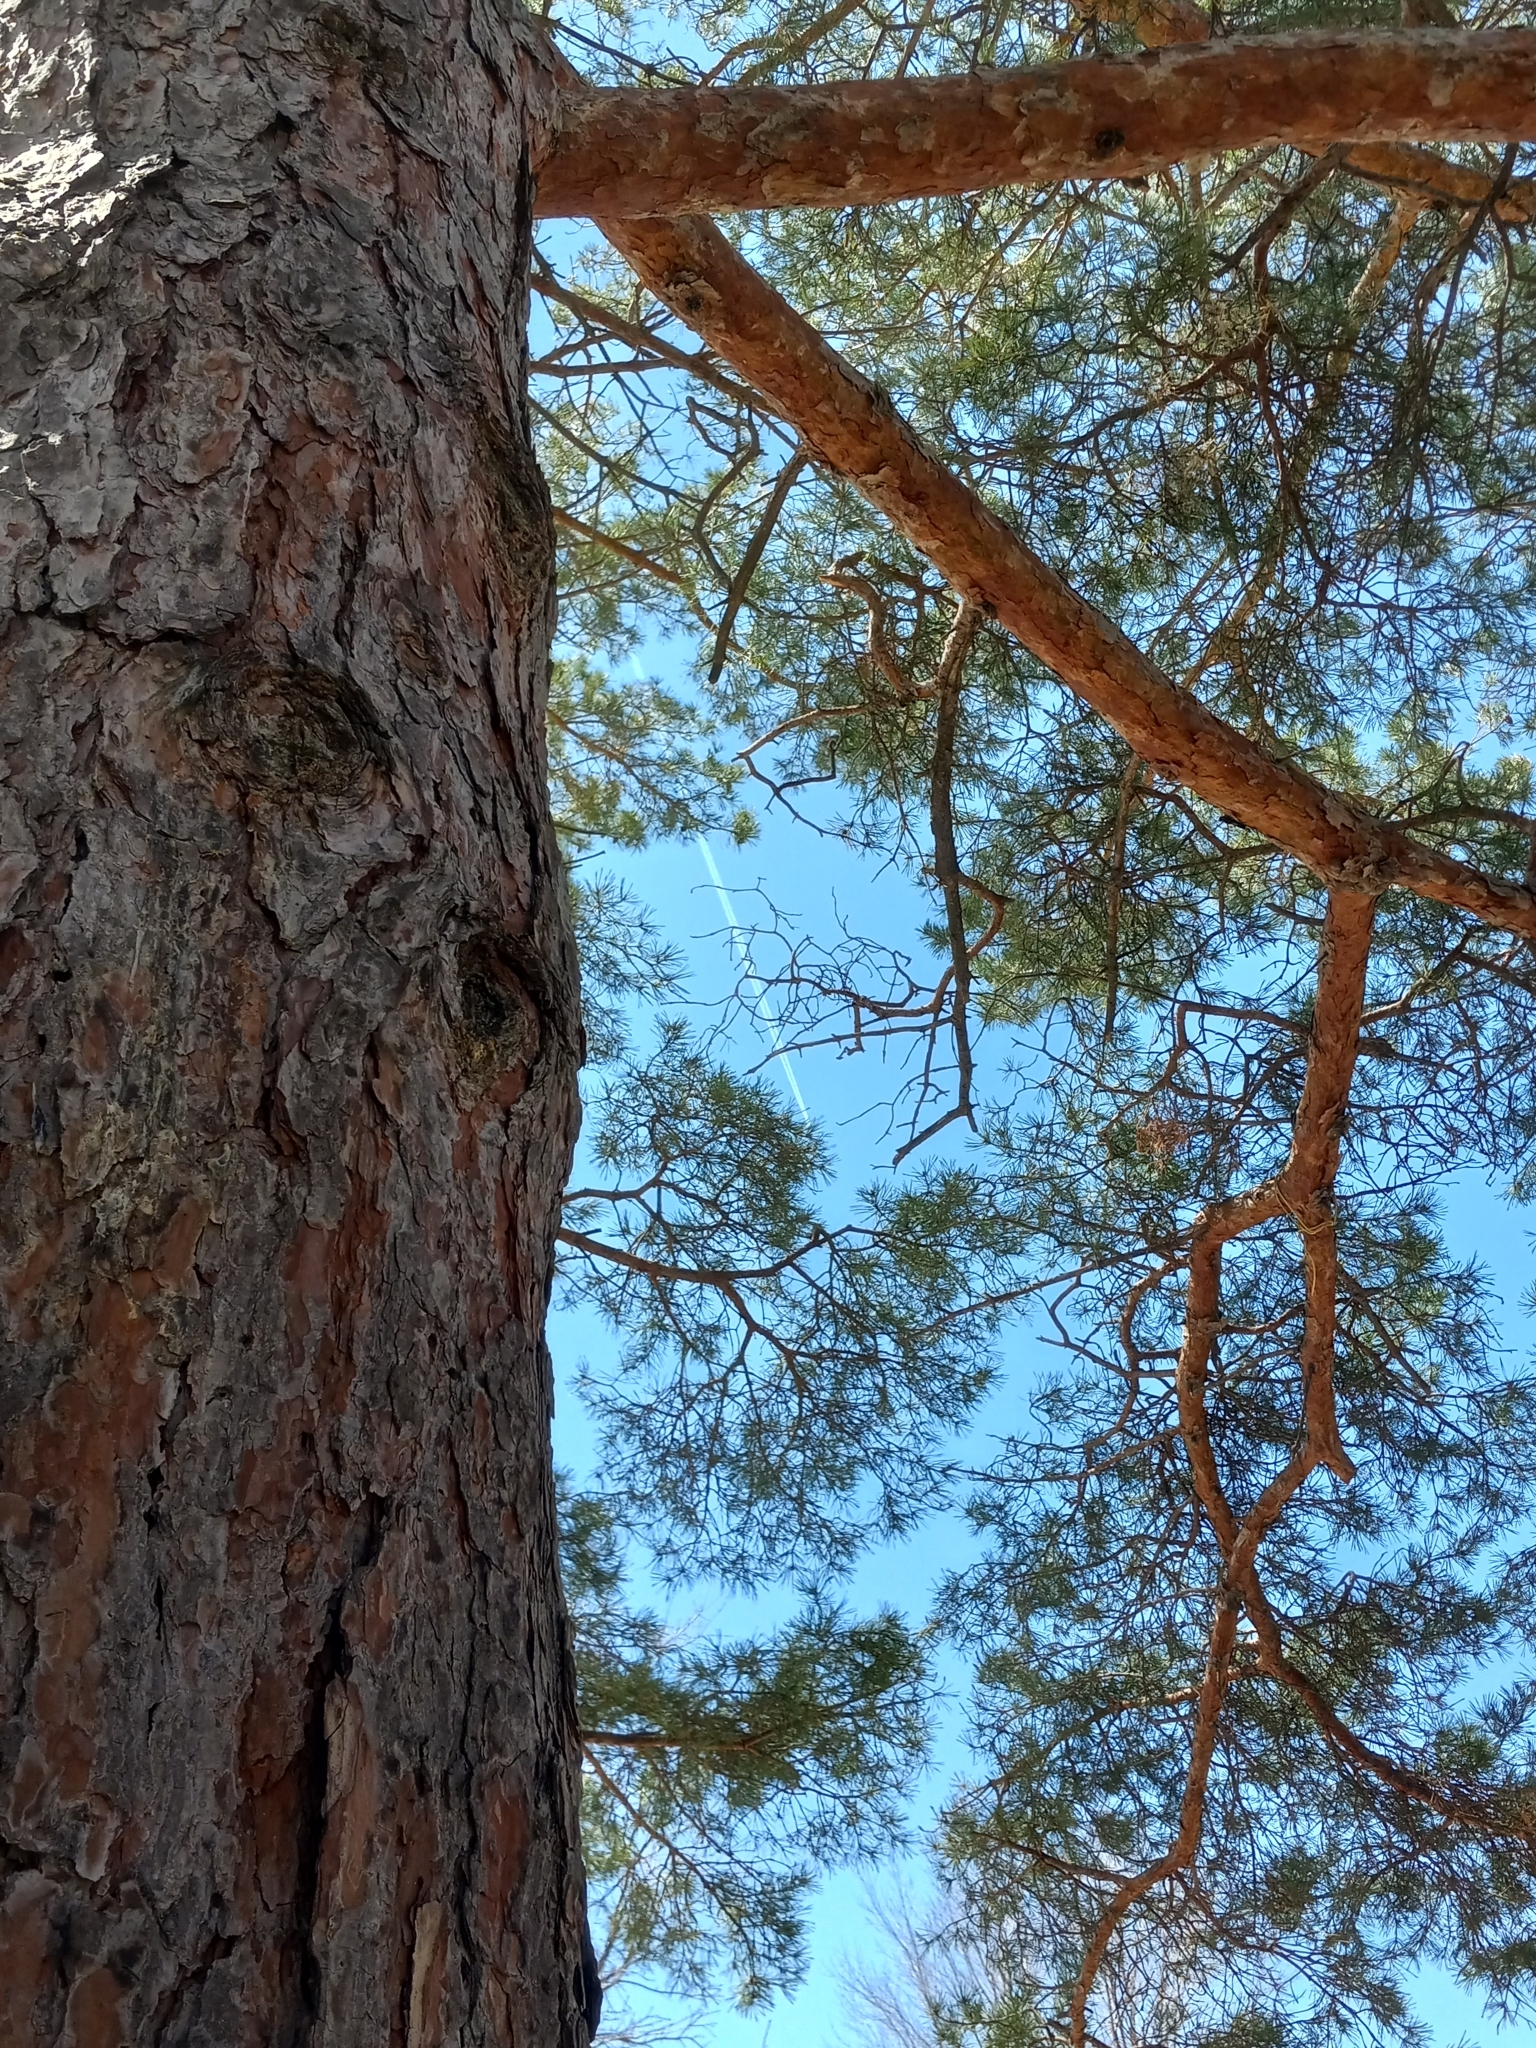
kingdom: Plantae
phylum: Tracheophyta
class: Pinopsida
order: Pinales
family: Pinaceae
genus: Pinus
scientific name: Pinus resinosa
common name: Norway pine
